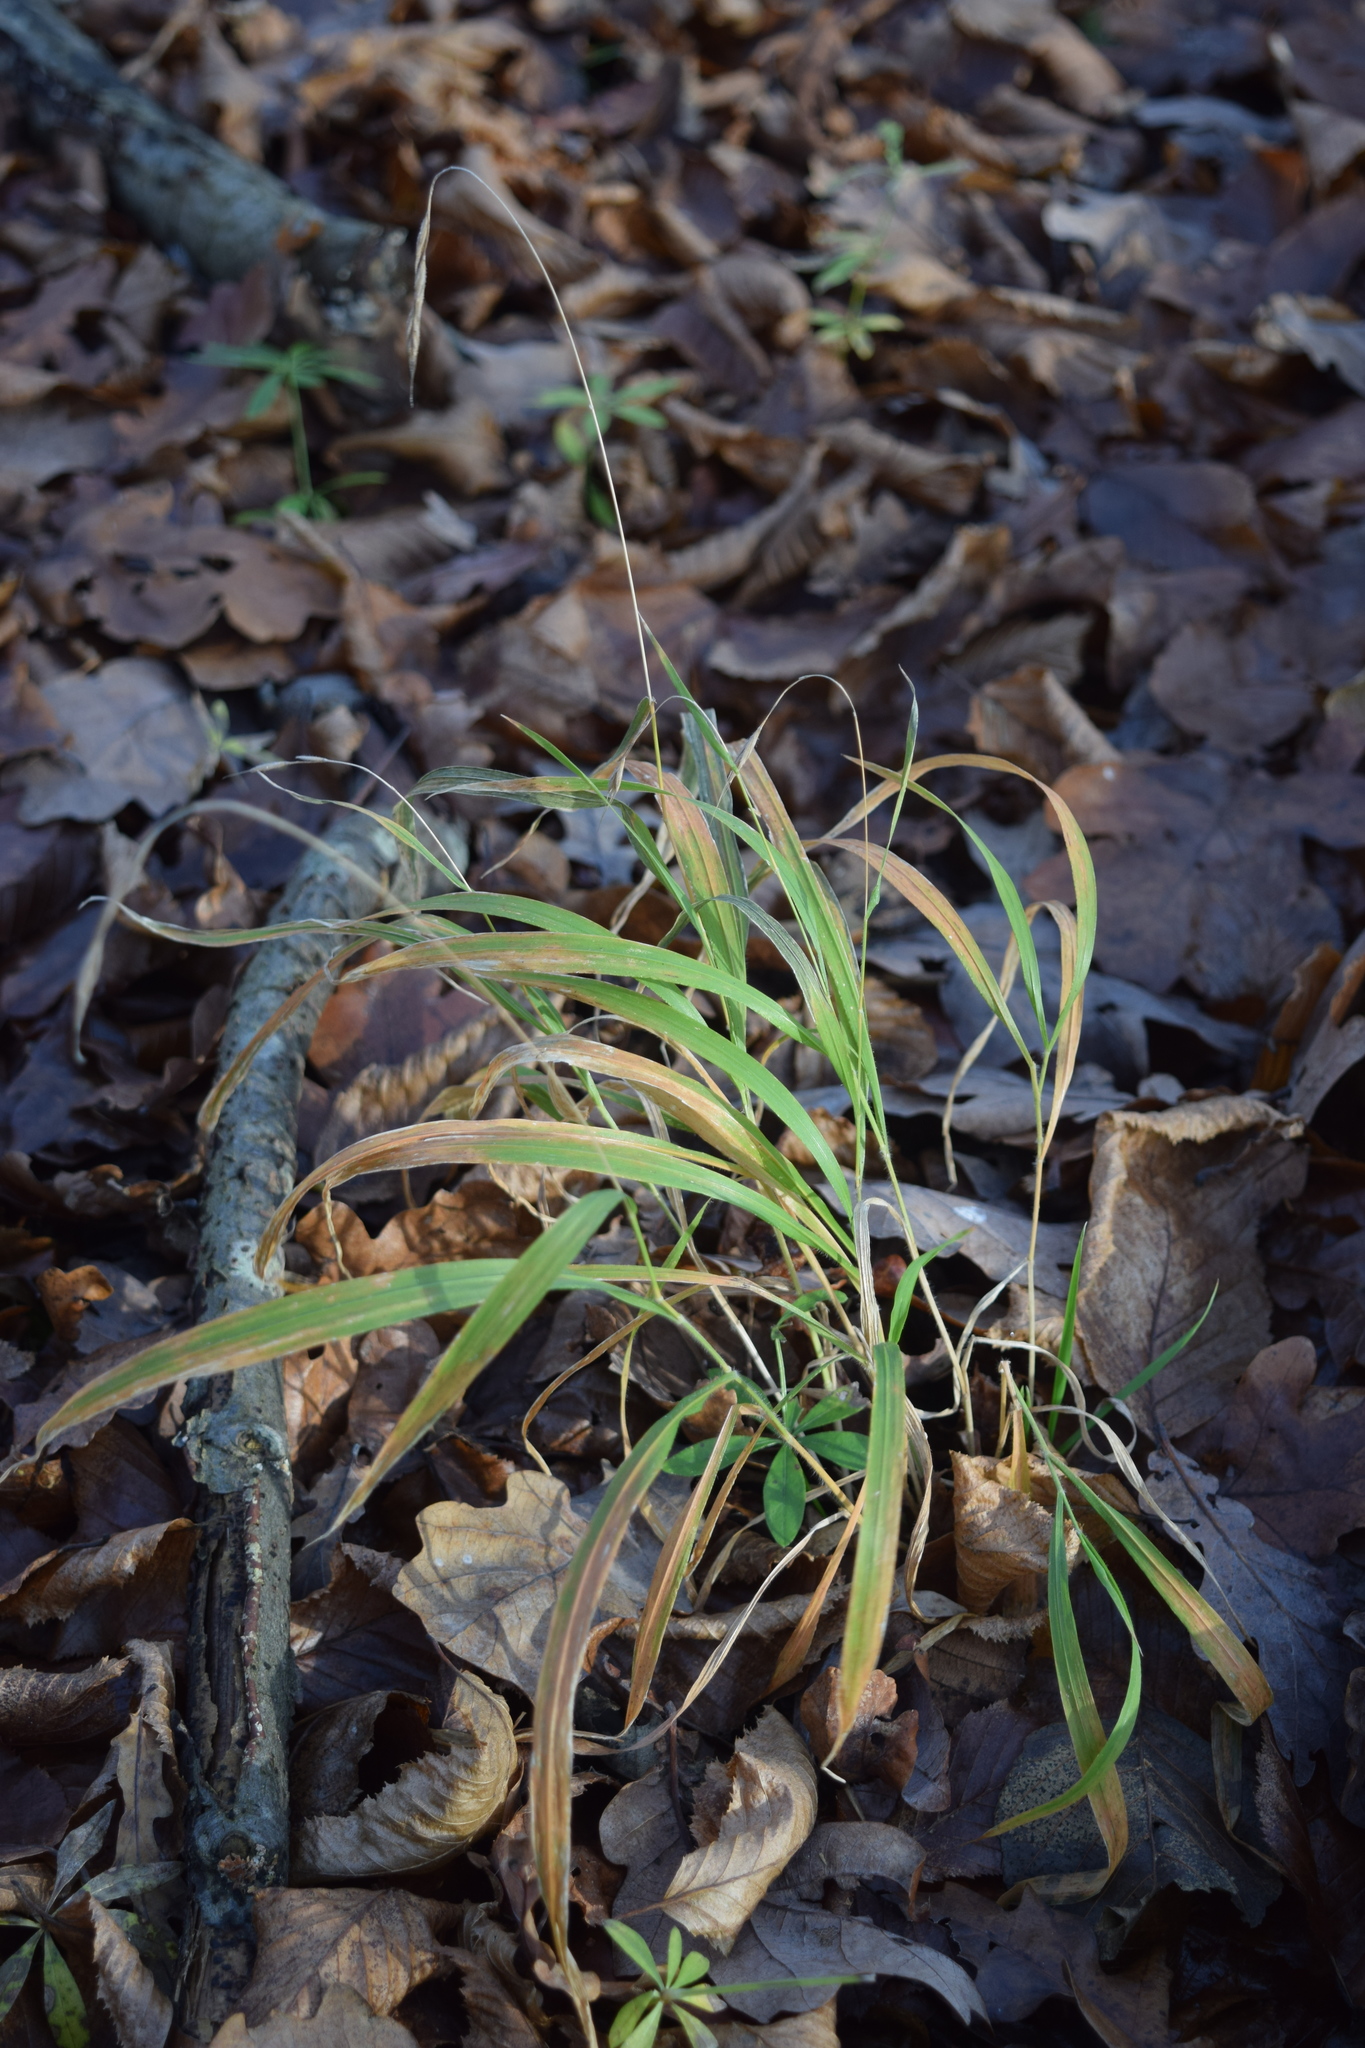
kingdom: Plantae
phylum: Tracheophyta
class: Liliopsida
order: Poales
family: Poaceae
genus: Brachypodium
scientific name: Brachypodium sylvaticum
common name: False-brome
